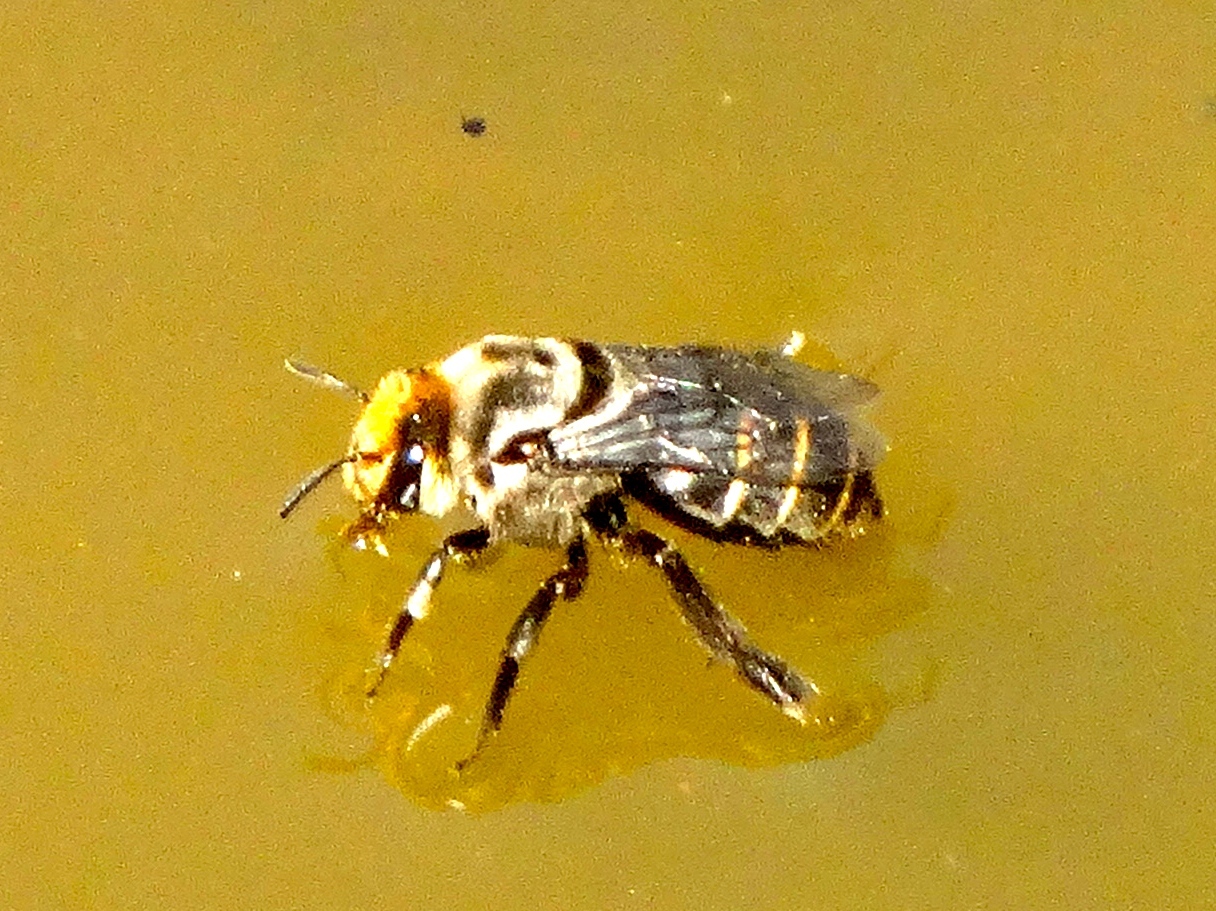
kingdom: Animalia
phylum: Arthropoda
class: Insecta
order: Hymenoptera
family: Apidae
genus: Melitoma
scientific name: Melitoma
